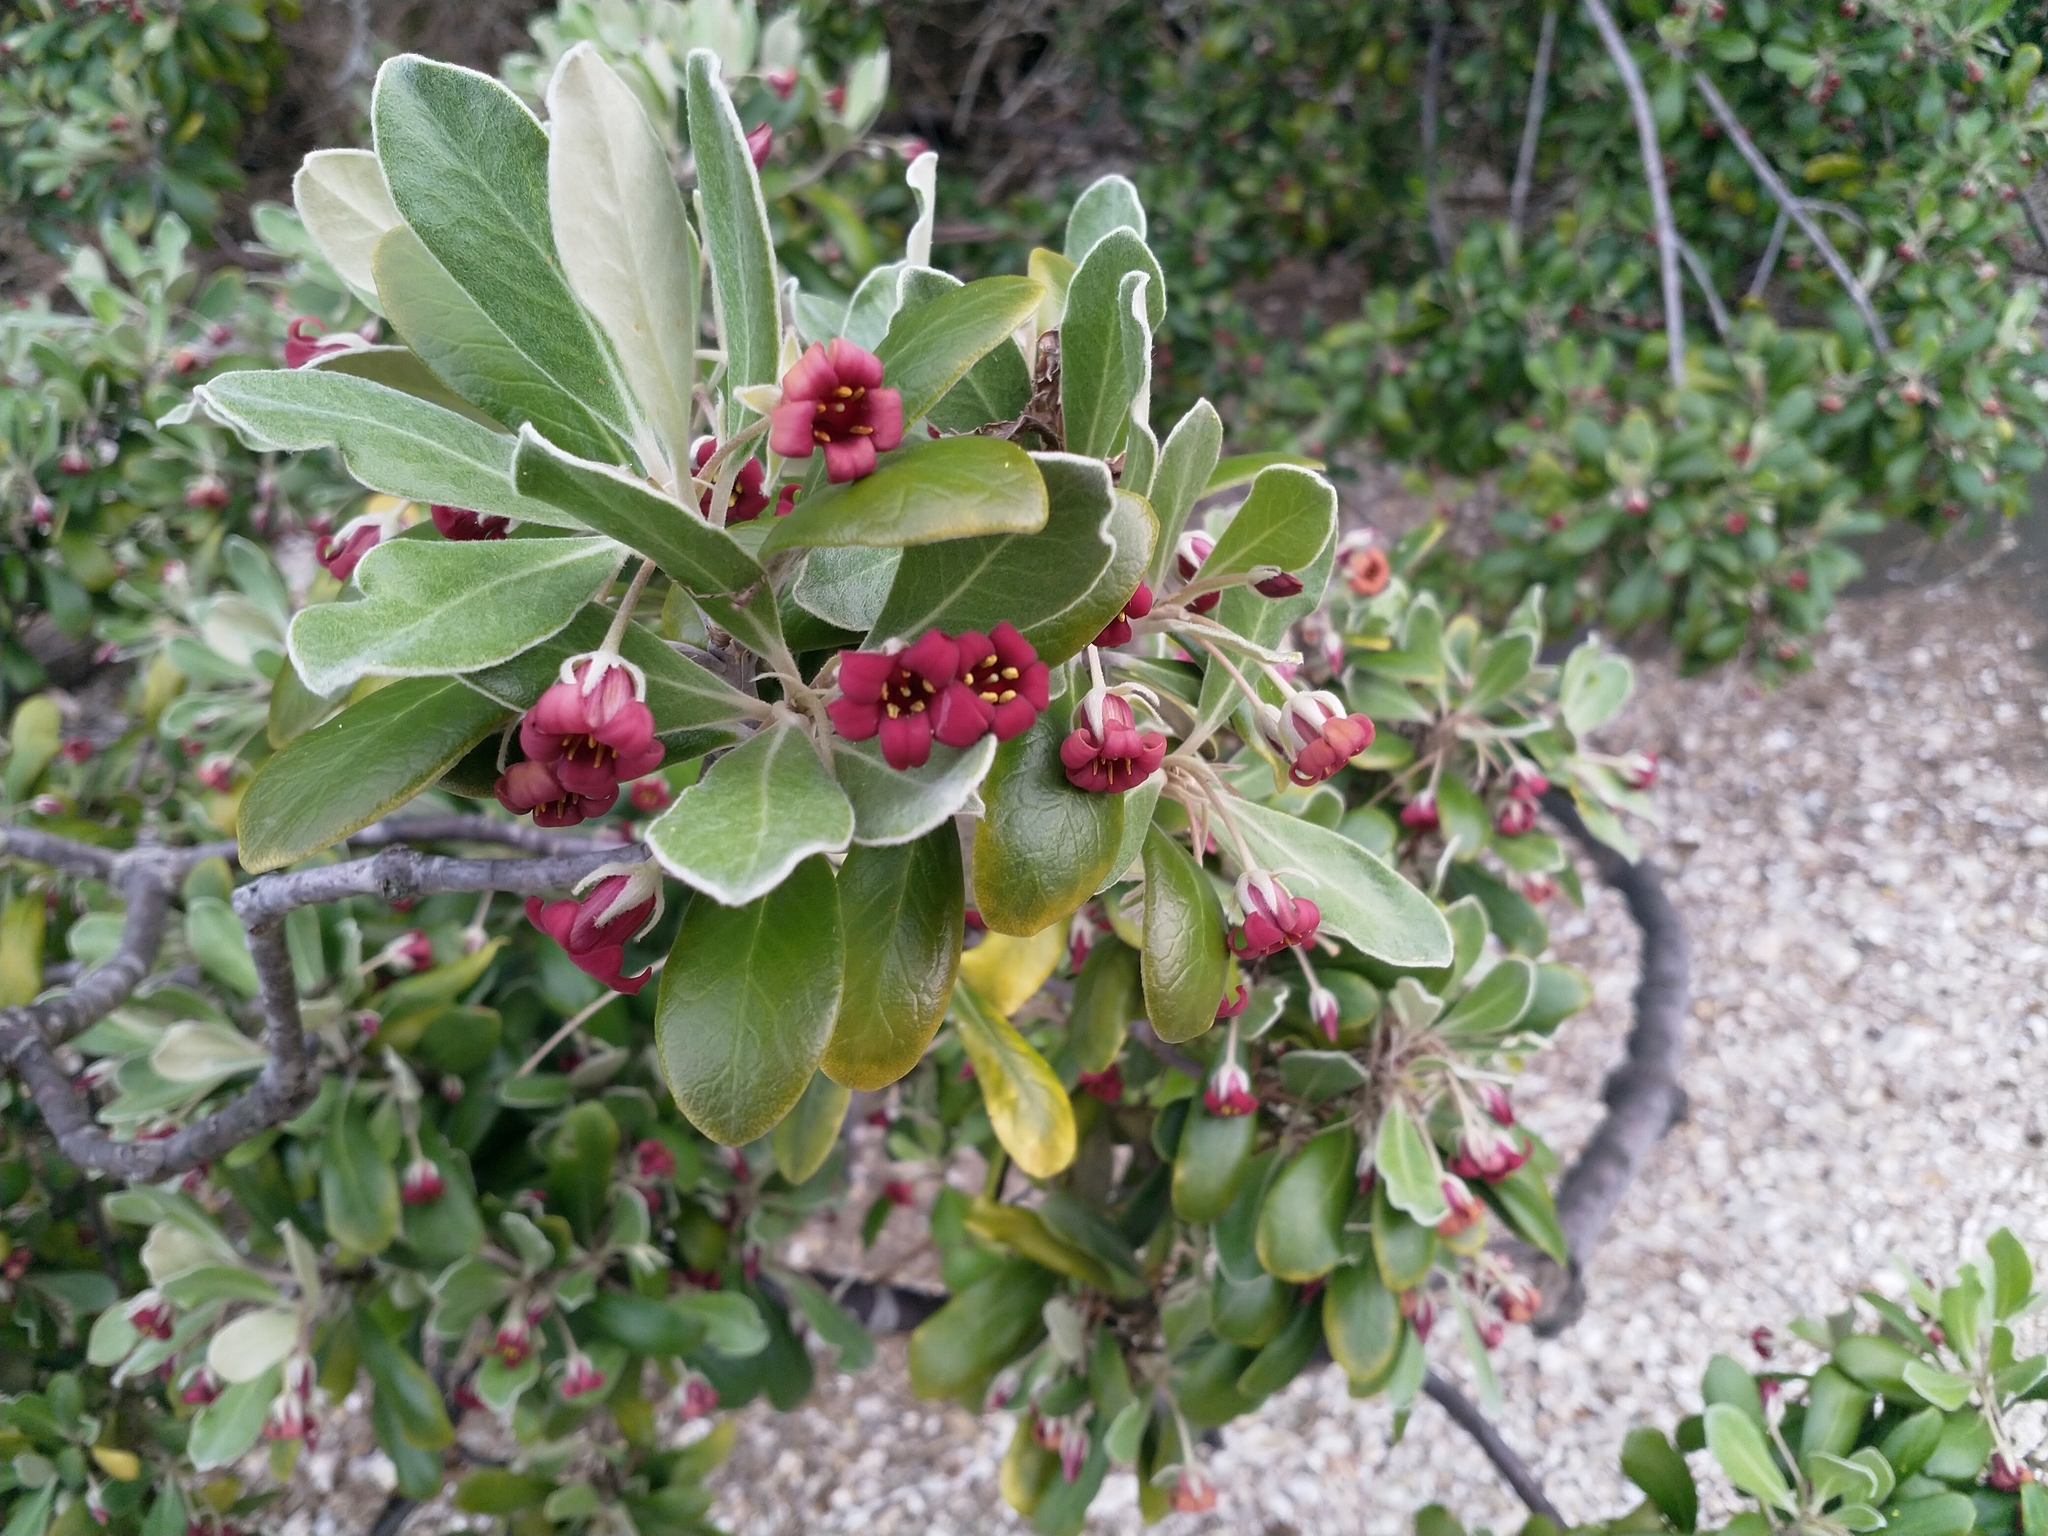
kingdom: Plantae
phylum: Tracheophyta
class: Magnoliopsida
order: Apiales
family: Pittosporaceae
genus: Pittosporum
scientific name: Pittosporum crassifolium
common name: Karo
